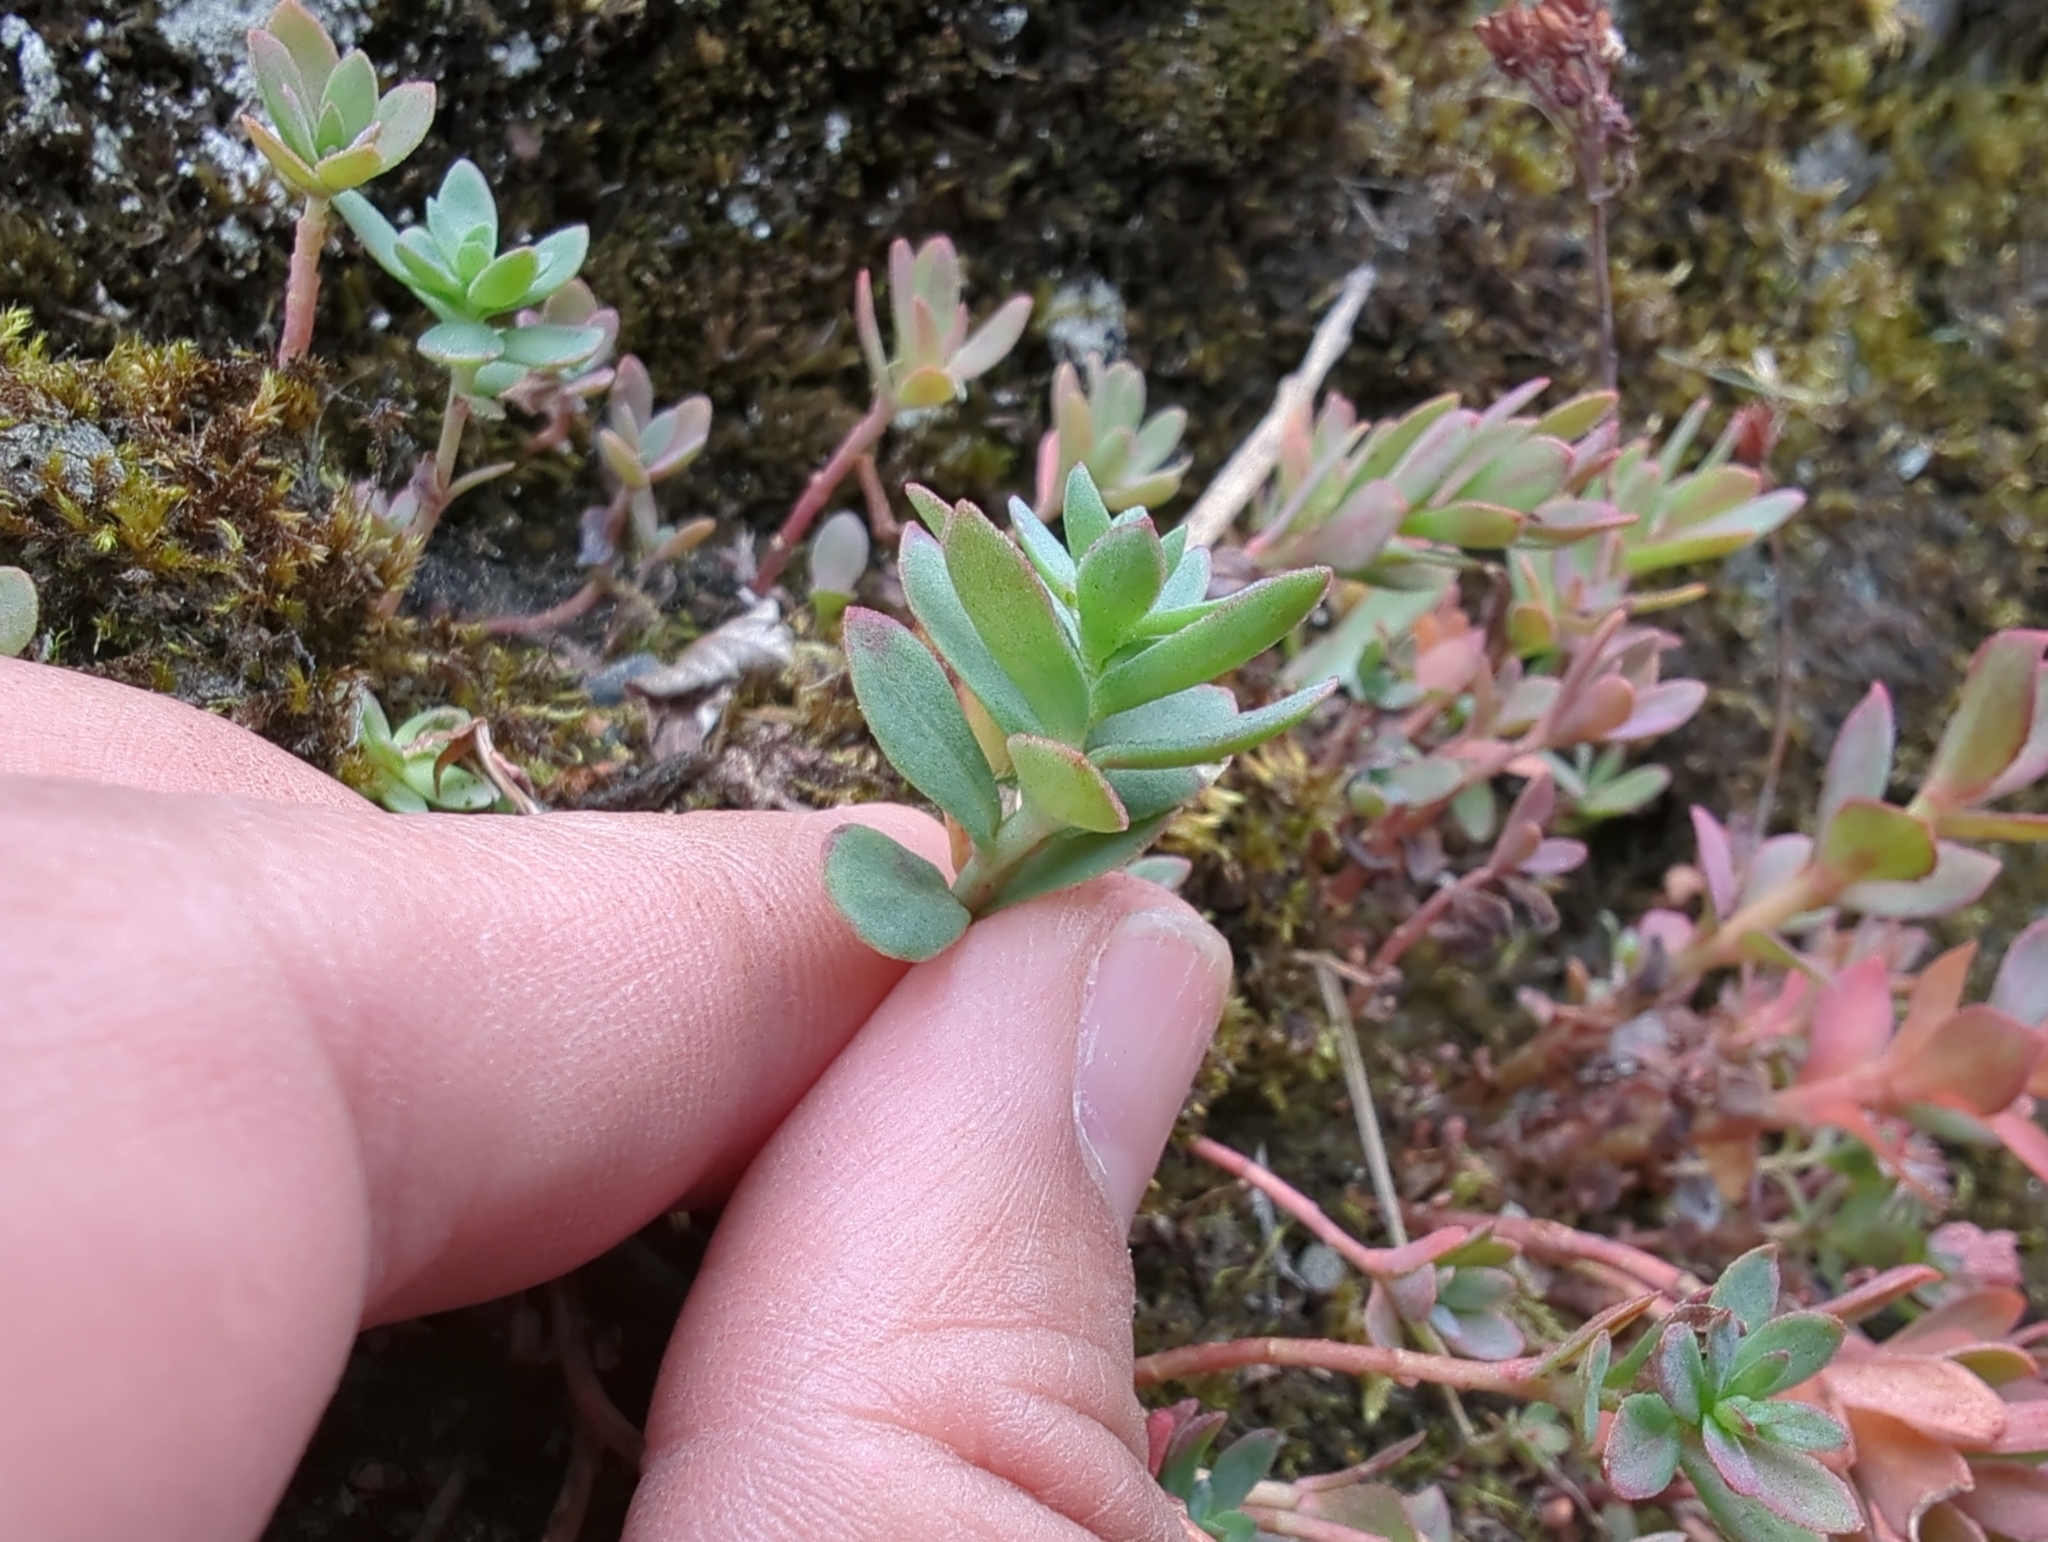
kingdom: Plantae
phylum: Tracheophyta
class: Magnoliopsida
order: Saxifragales
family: Crassulaceae
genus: Rhodiola
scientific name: Rhodiola integrifolia
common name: Western roseroot
